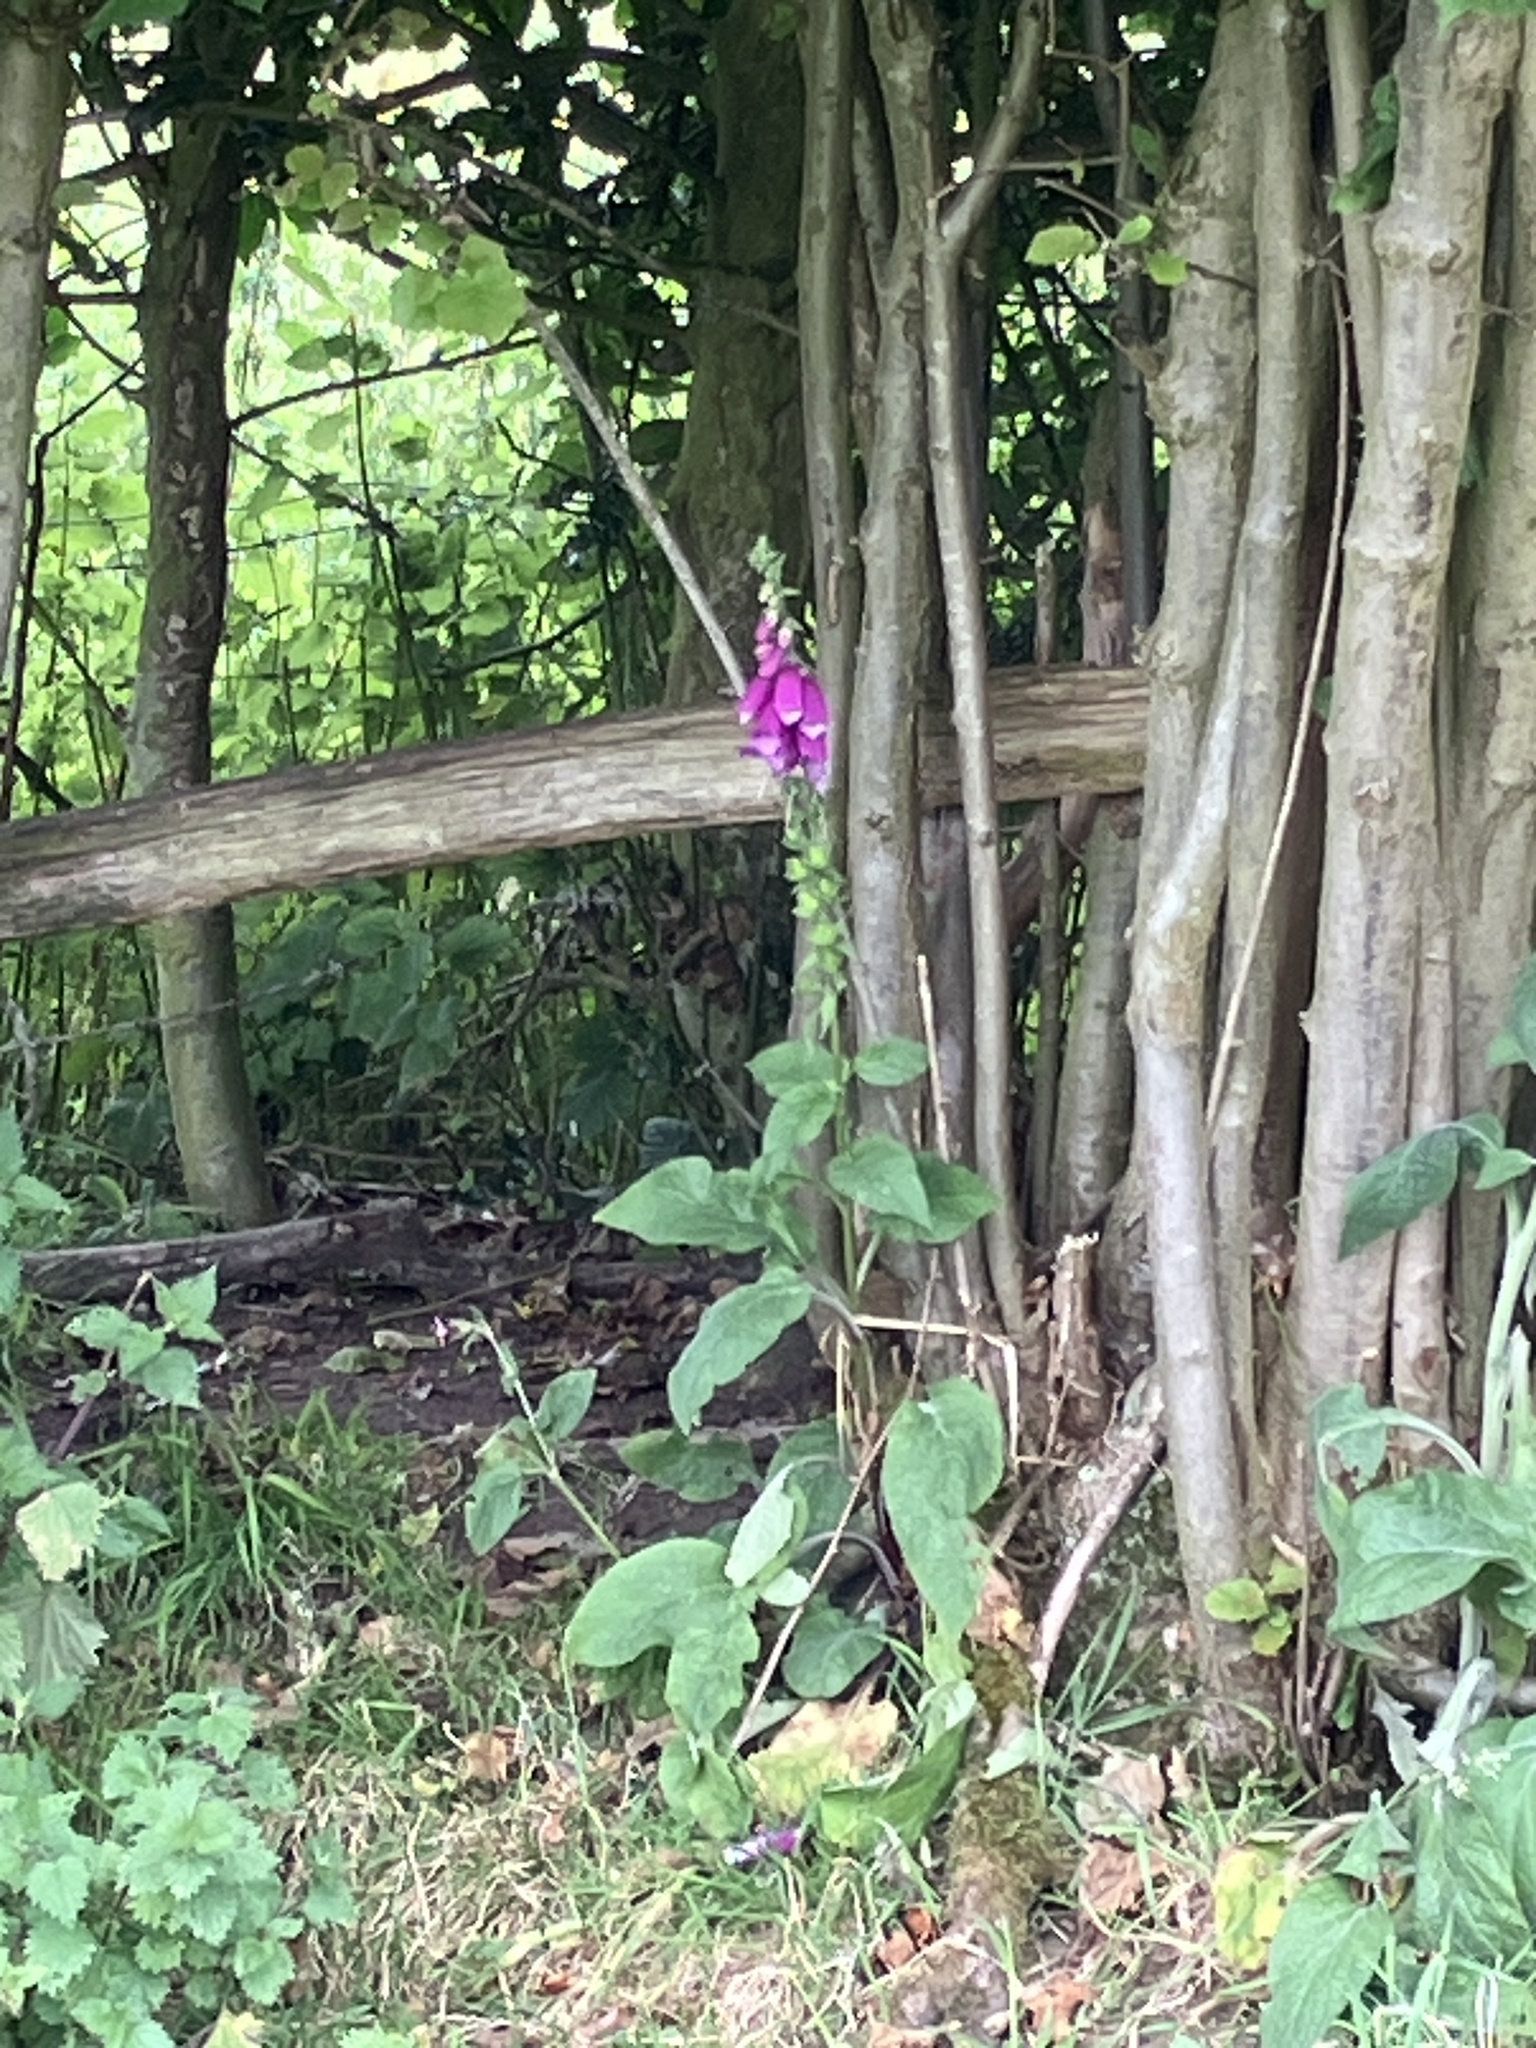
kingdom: Plantae
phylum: Tracheophyta
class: Magnoliopsida
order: Lamiales
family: Plantaginaceae
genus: Digitalis
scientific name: Digitalis purpurea
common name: Foxglove
